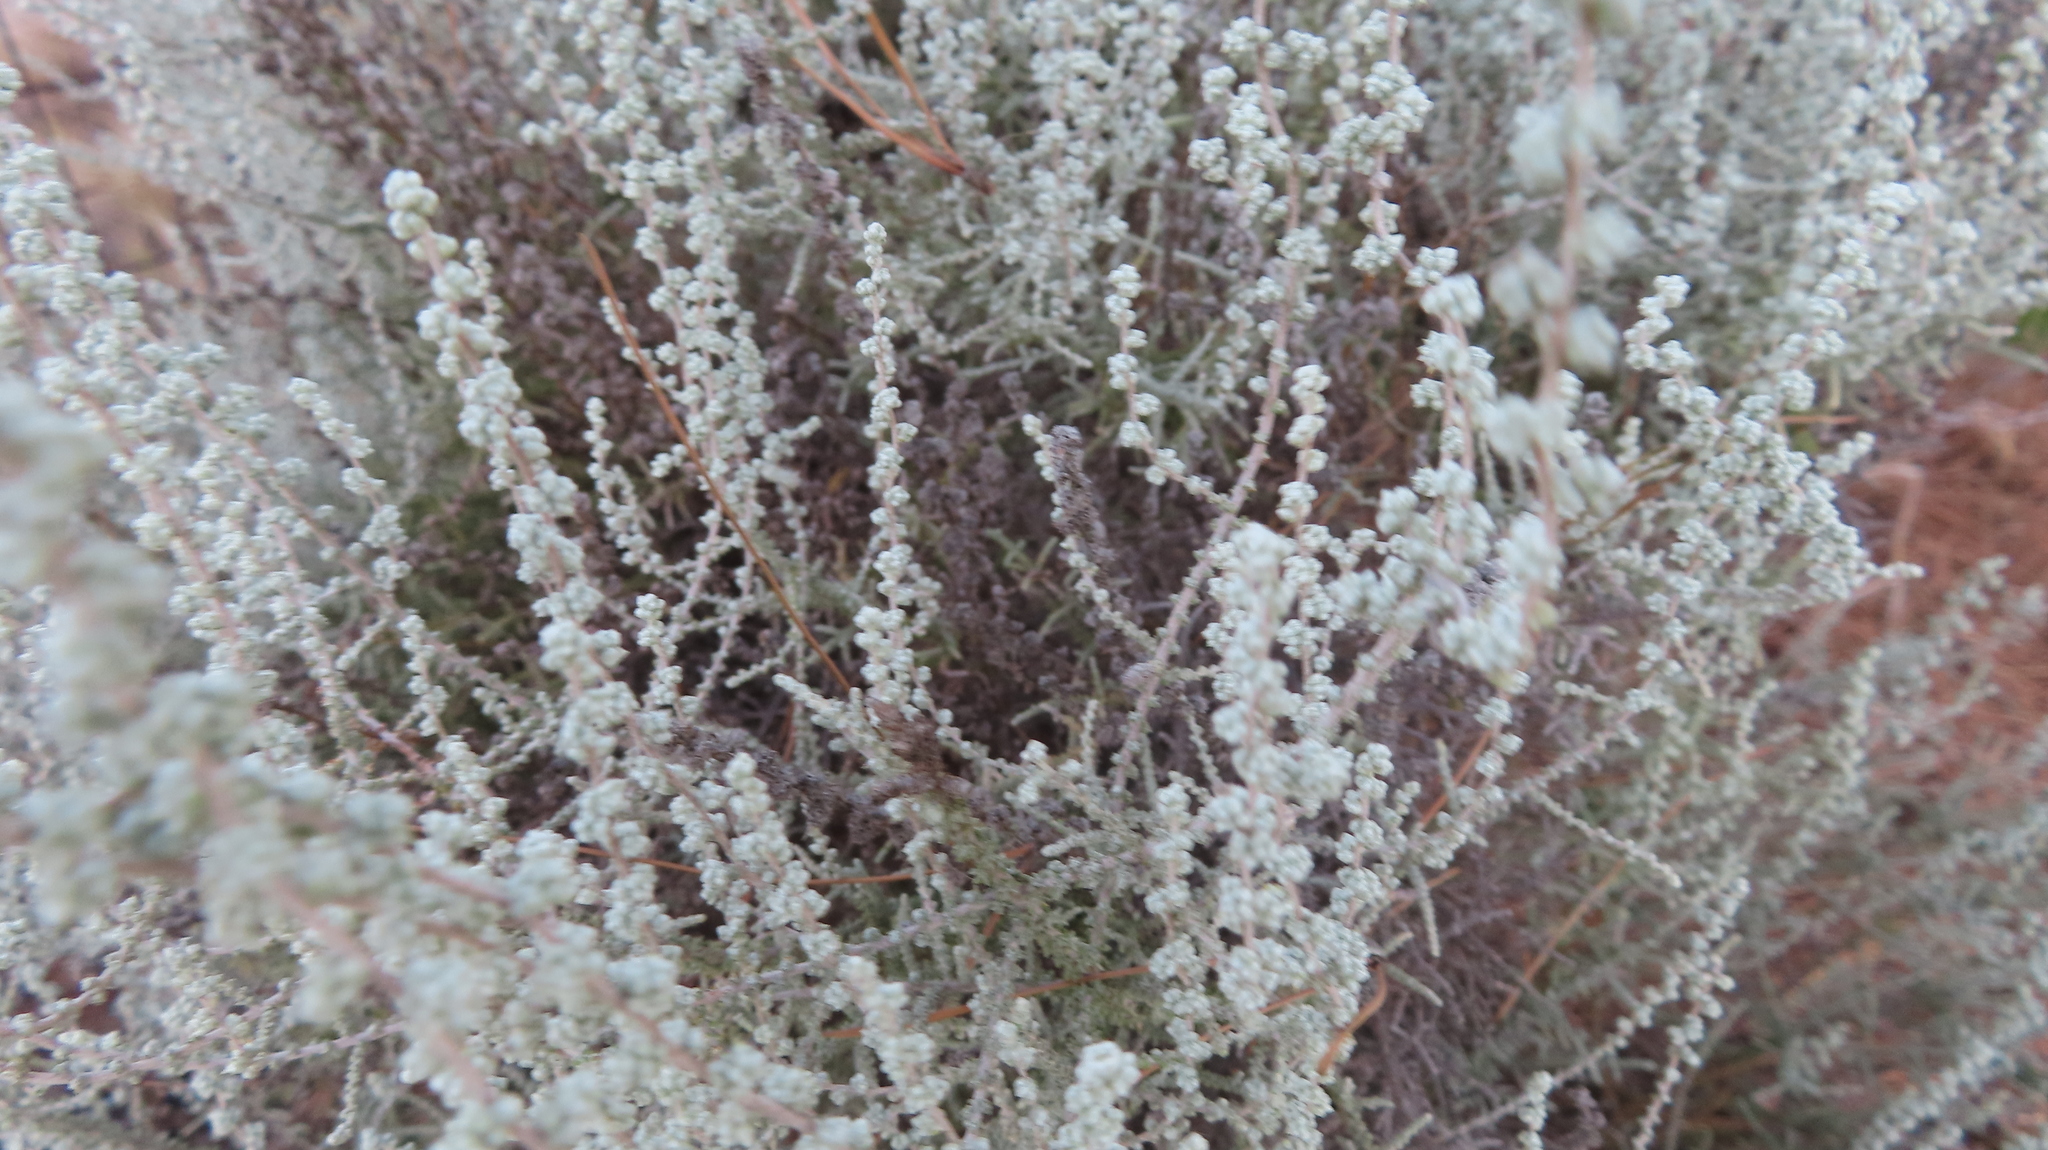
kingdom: Plantae
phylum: Tracheophyta
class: Magnoliopsida
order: Asterales
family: Asteraceae
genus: Seriphium
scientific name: Seriphium plumosum
